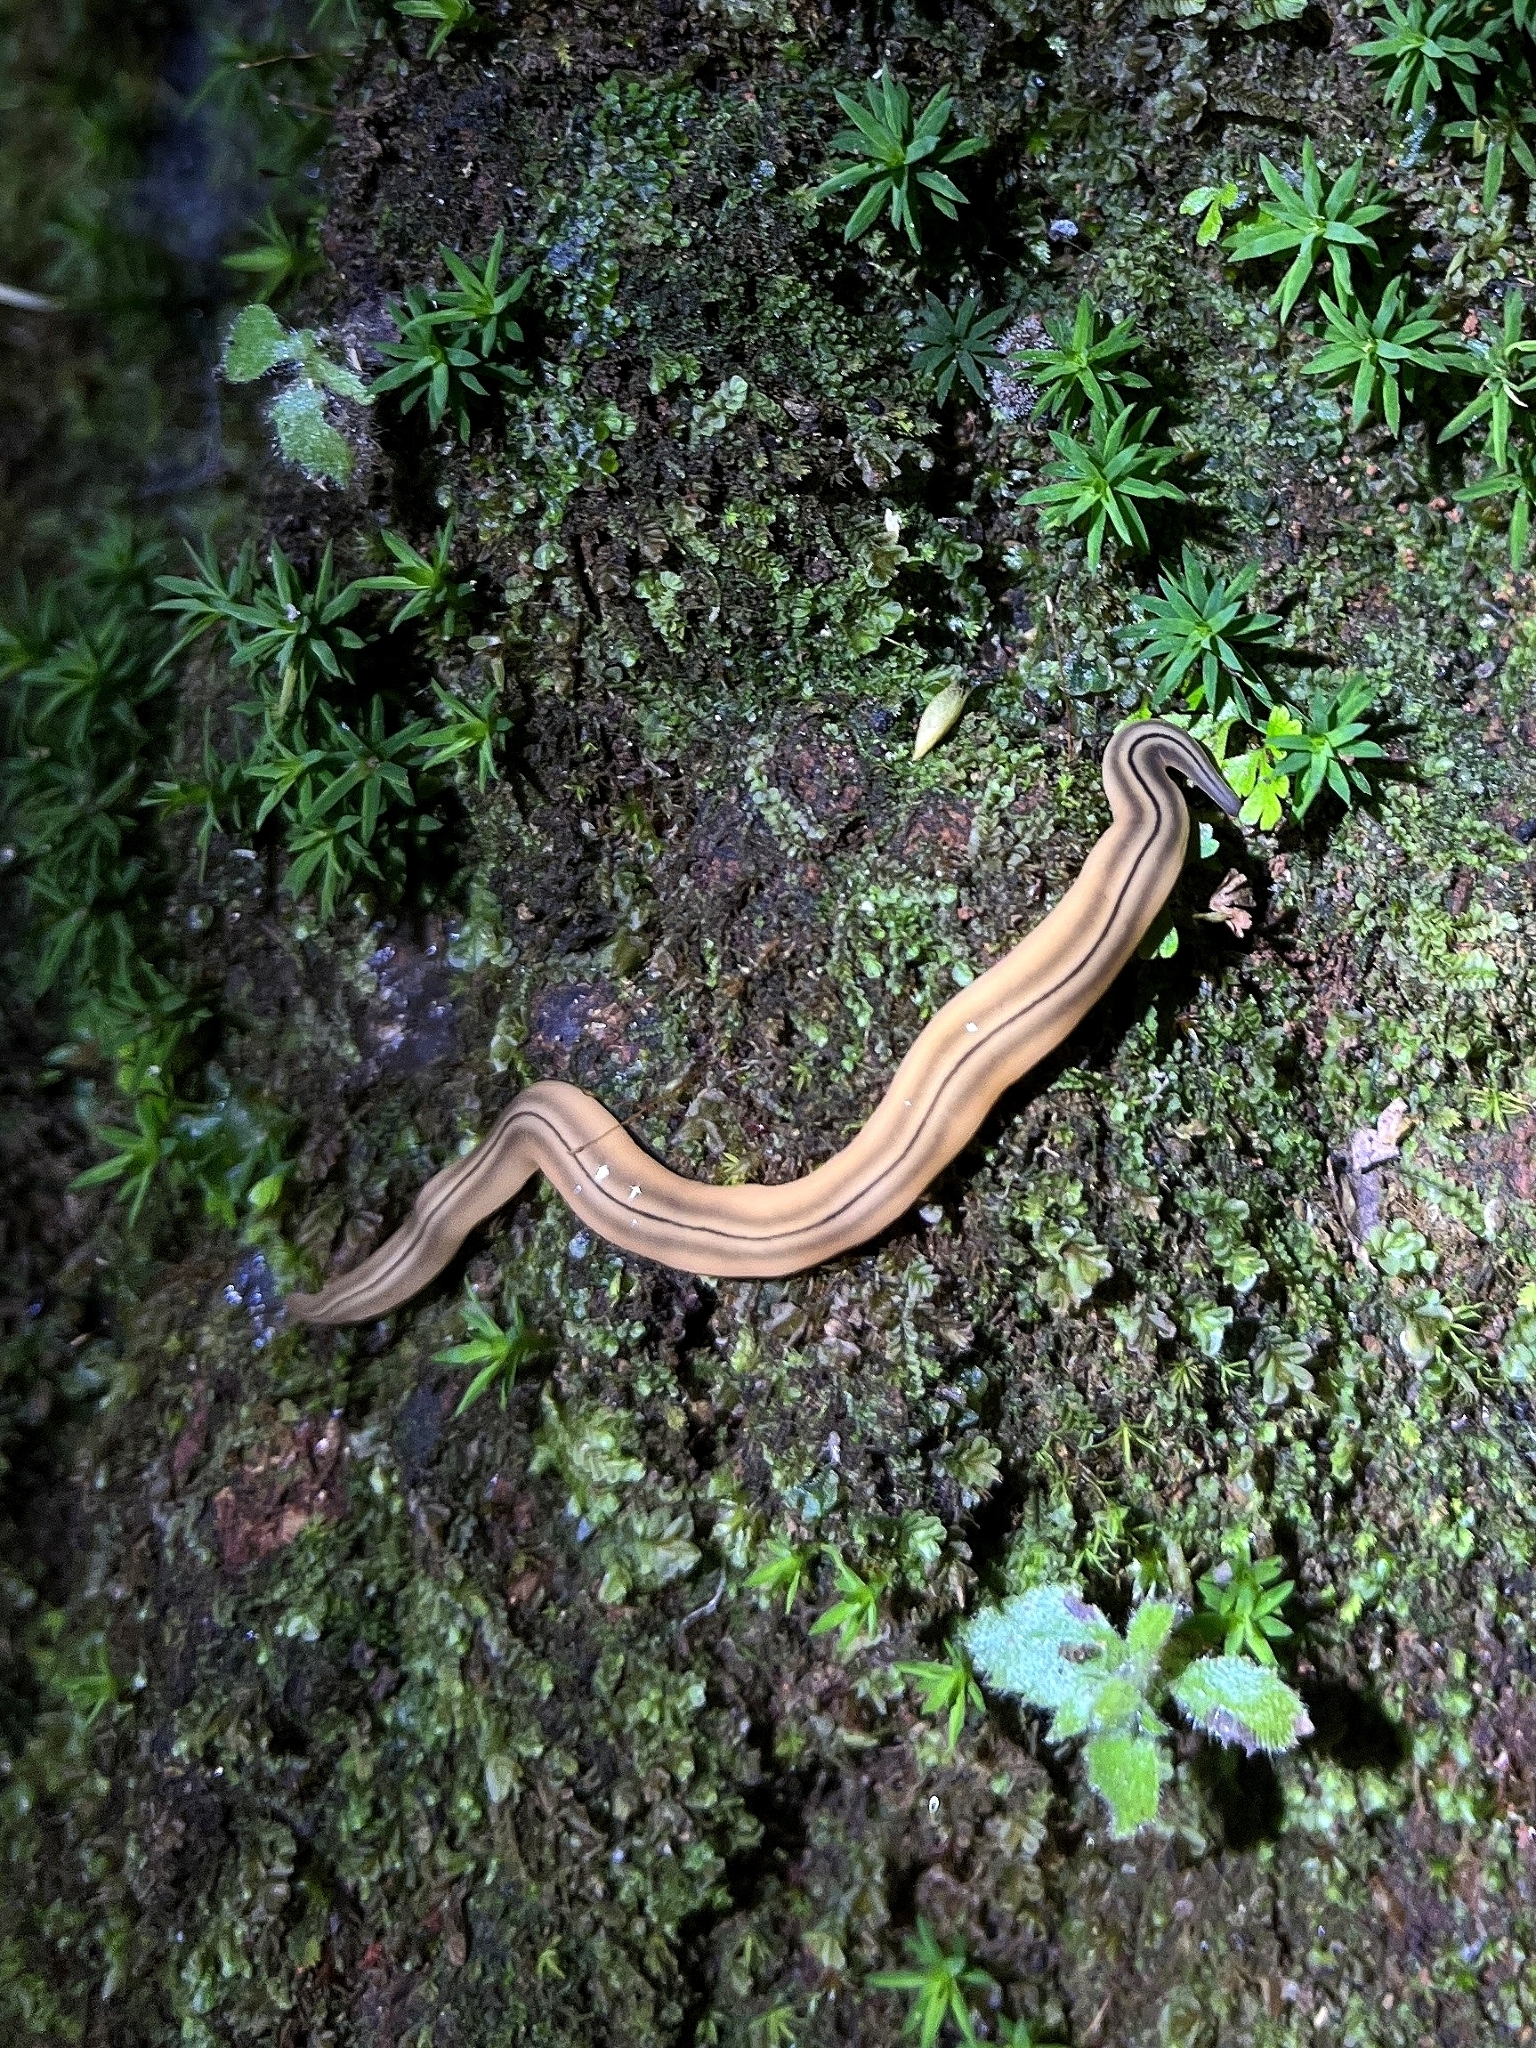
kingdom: Animalia
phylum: Platyhelminthes
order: Tricladida
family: Geoplanidae
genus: Dolichoplana
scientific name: Dolichoplana striata
